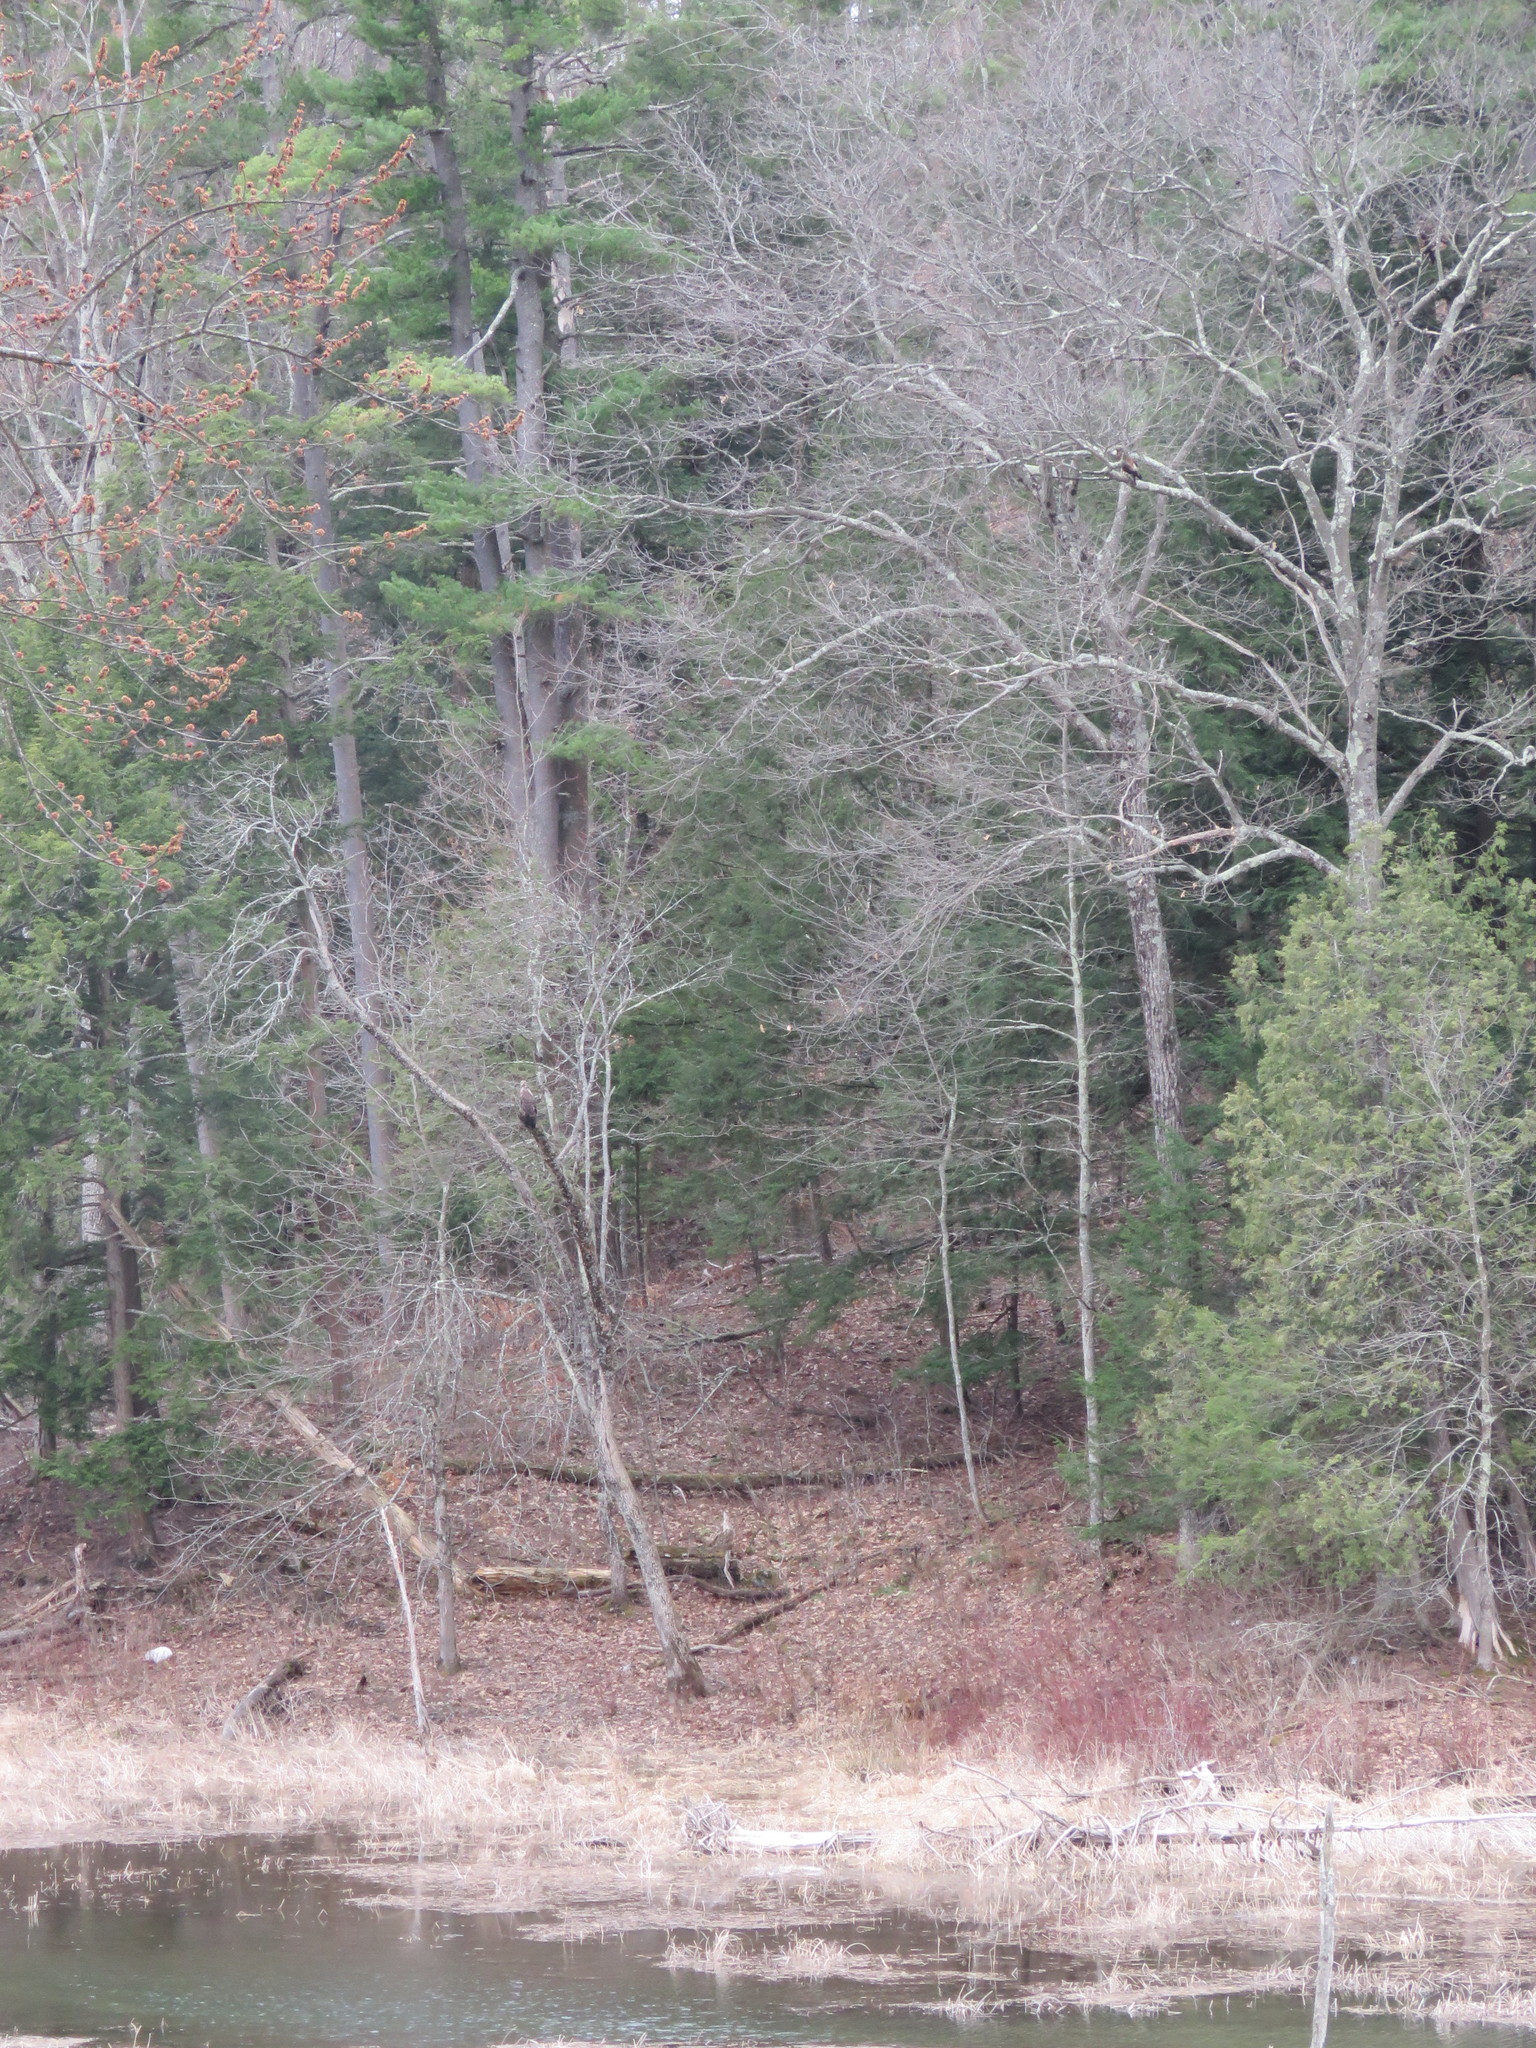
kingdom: Animalia
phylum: Chordata
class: Aves
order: Accipitriformes
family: Accipitridae
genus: Haliaeetus
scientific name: Haliaeetus leucocephalus
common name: Bald eagle
